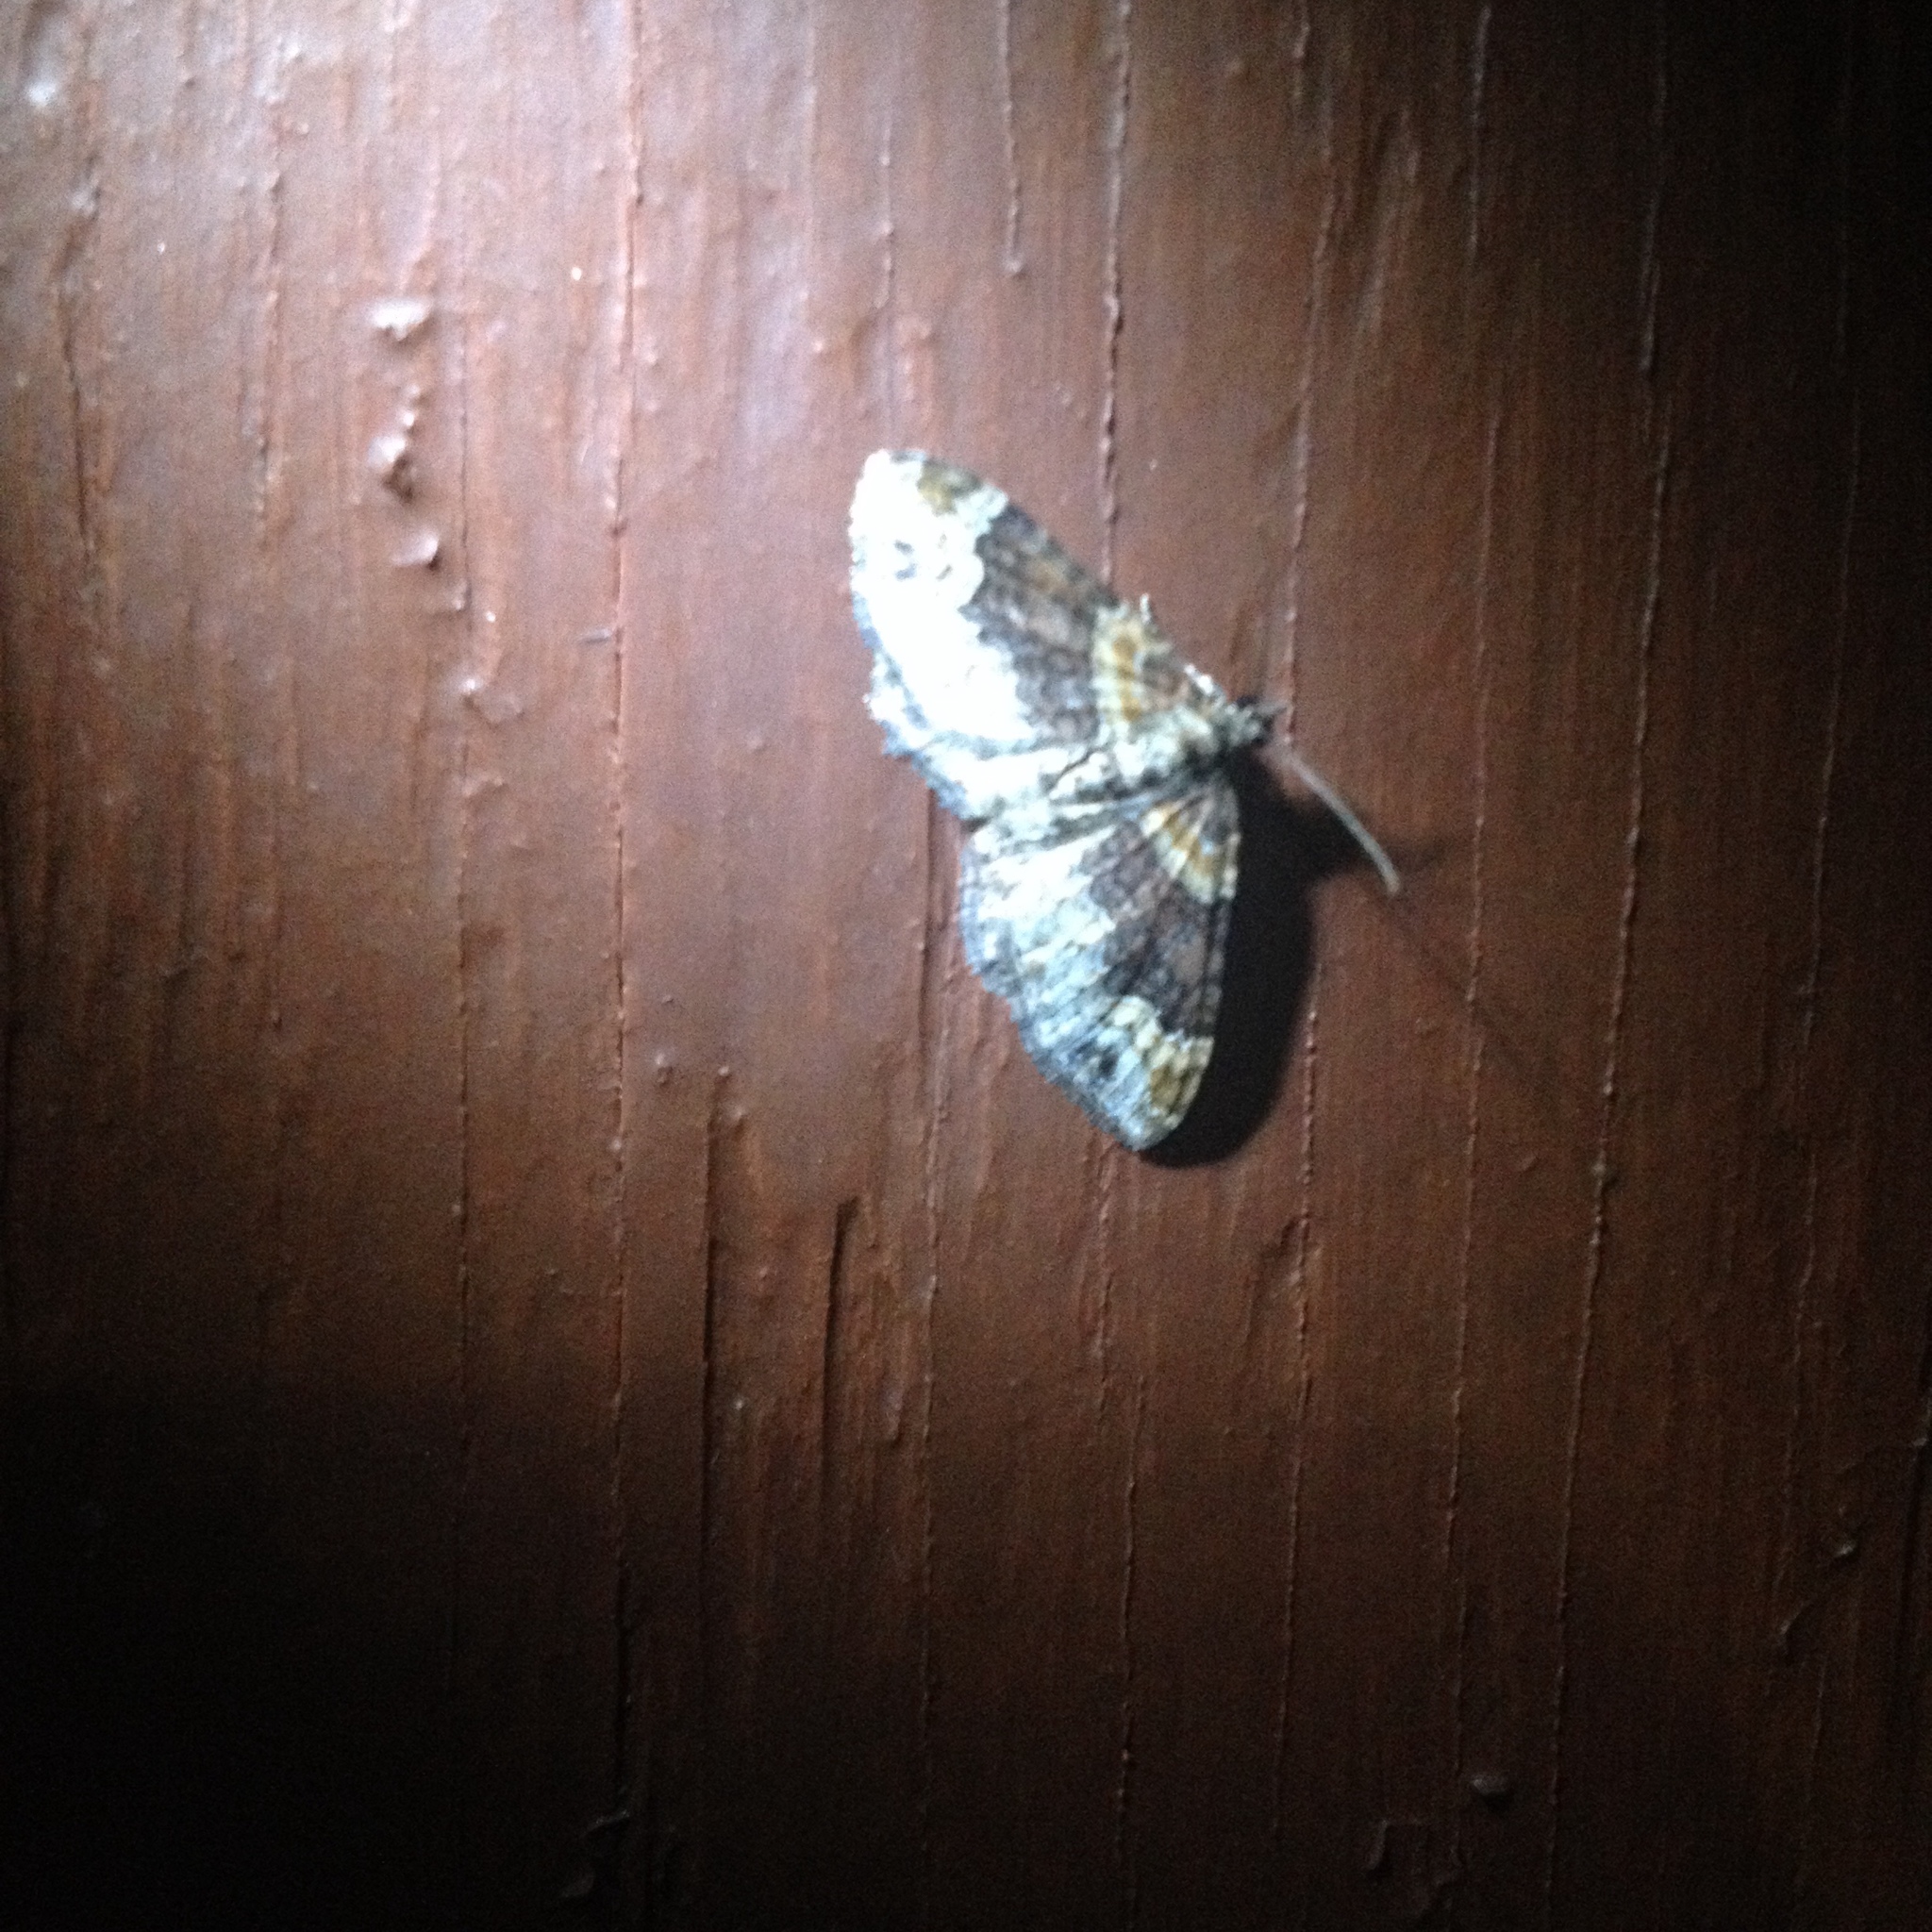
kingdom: Animalia
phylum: Arthropoda
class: Insecta
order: Lepidoptera
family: Geometridae
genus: Xanthorhoe
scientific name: Xanthorhoe ferrugata
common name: Dark-barred twin-spot carpet
